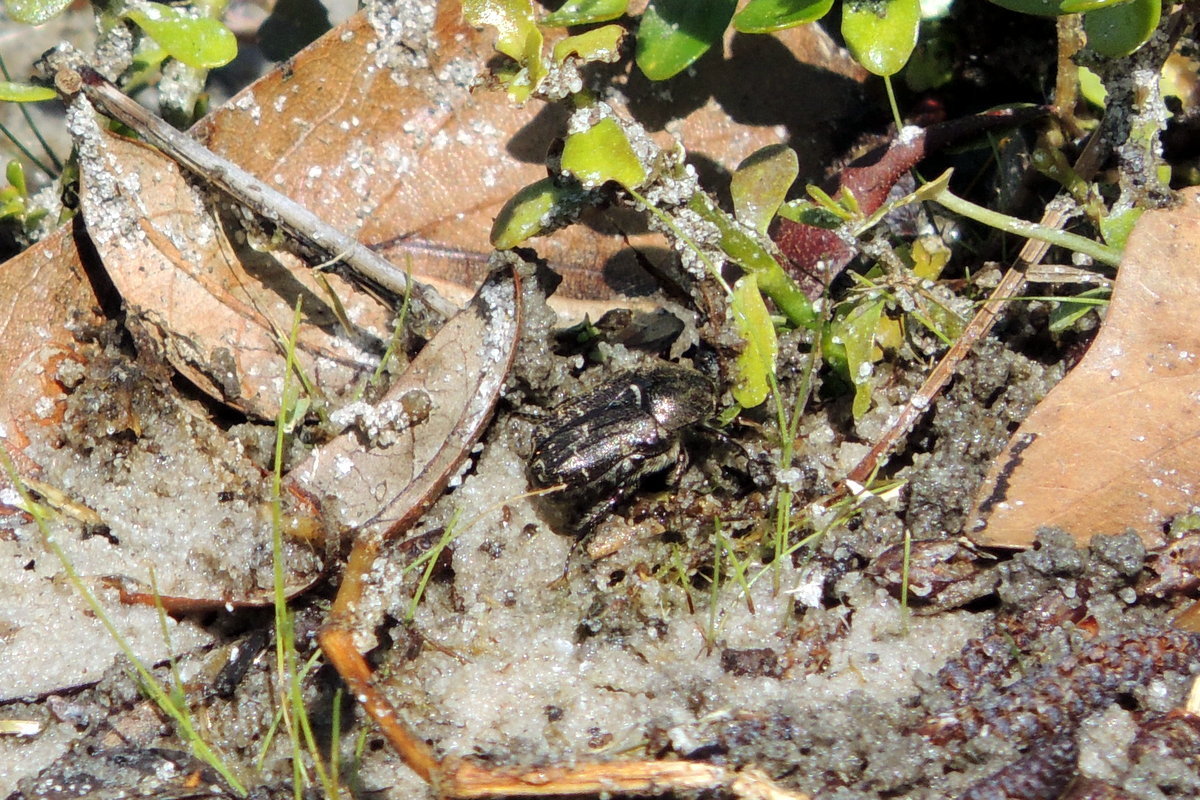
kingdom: Animalia
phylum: Arthropoda
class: Insecta
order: Coleoptera
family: Scarabaeidae
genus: Euphoria
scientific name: Euphoria sepulcralis
